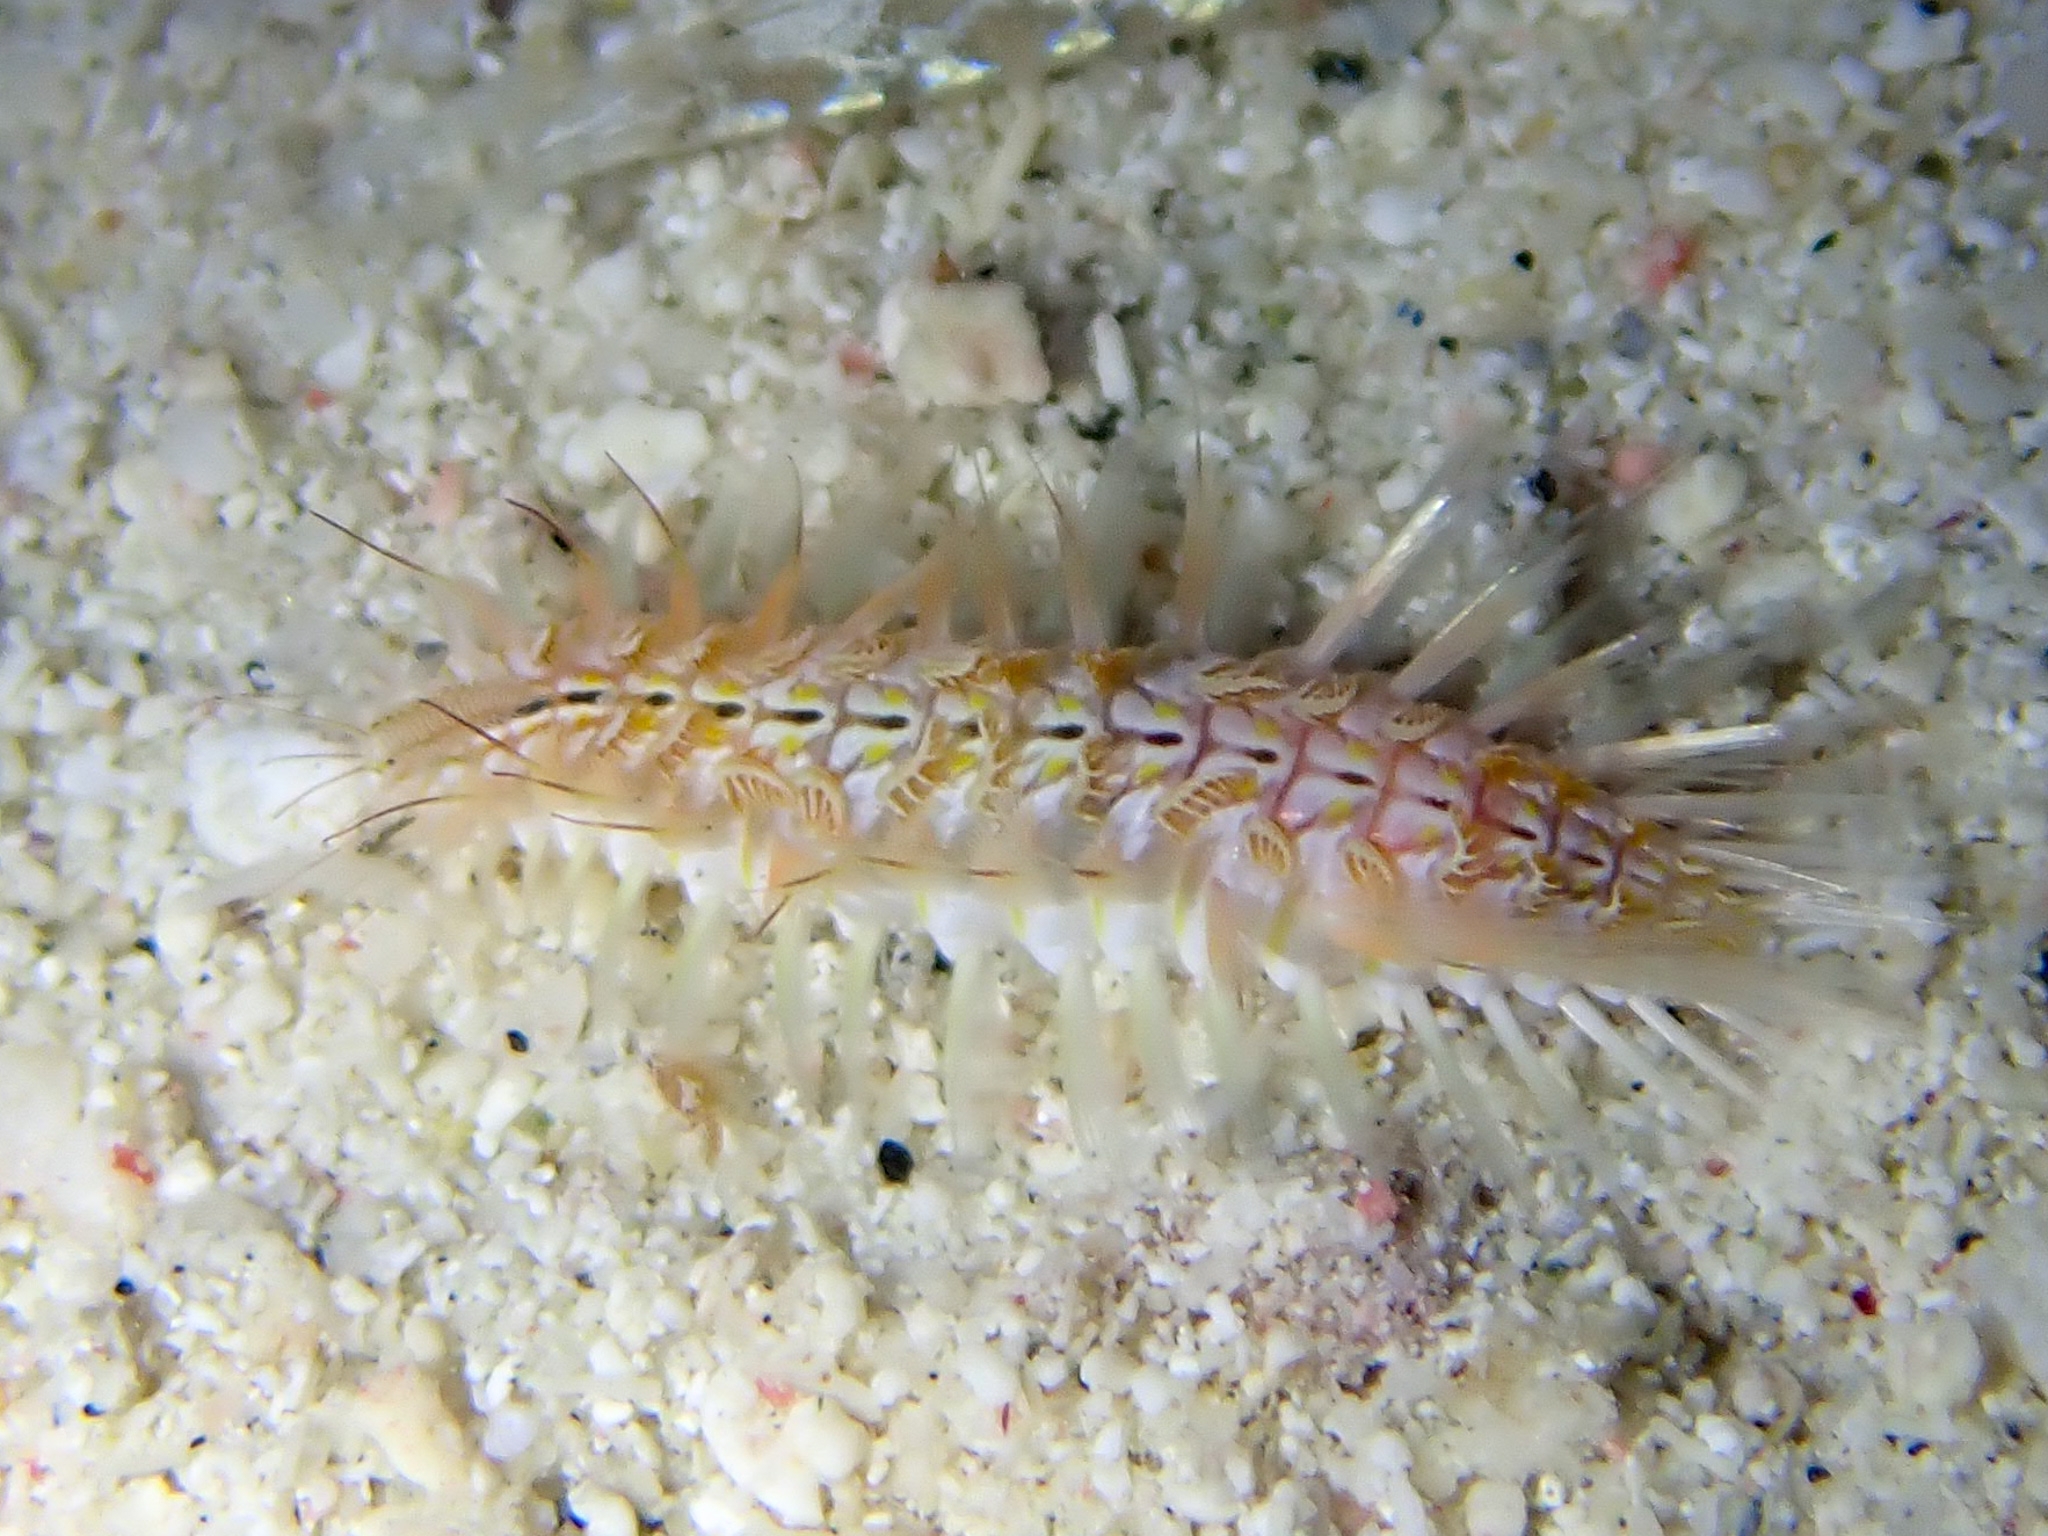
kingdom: Animalia
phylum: Annelida
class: Polychaeta
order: Amphinomida
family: Amphinomidae
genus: Chloeia
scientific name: Chloeia viridis
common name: Red-tipped fireworm
